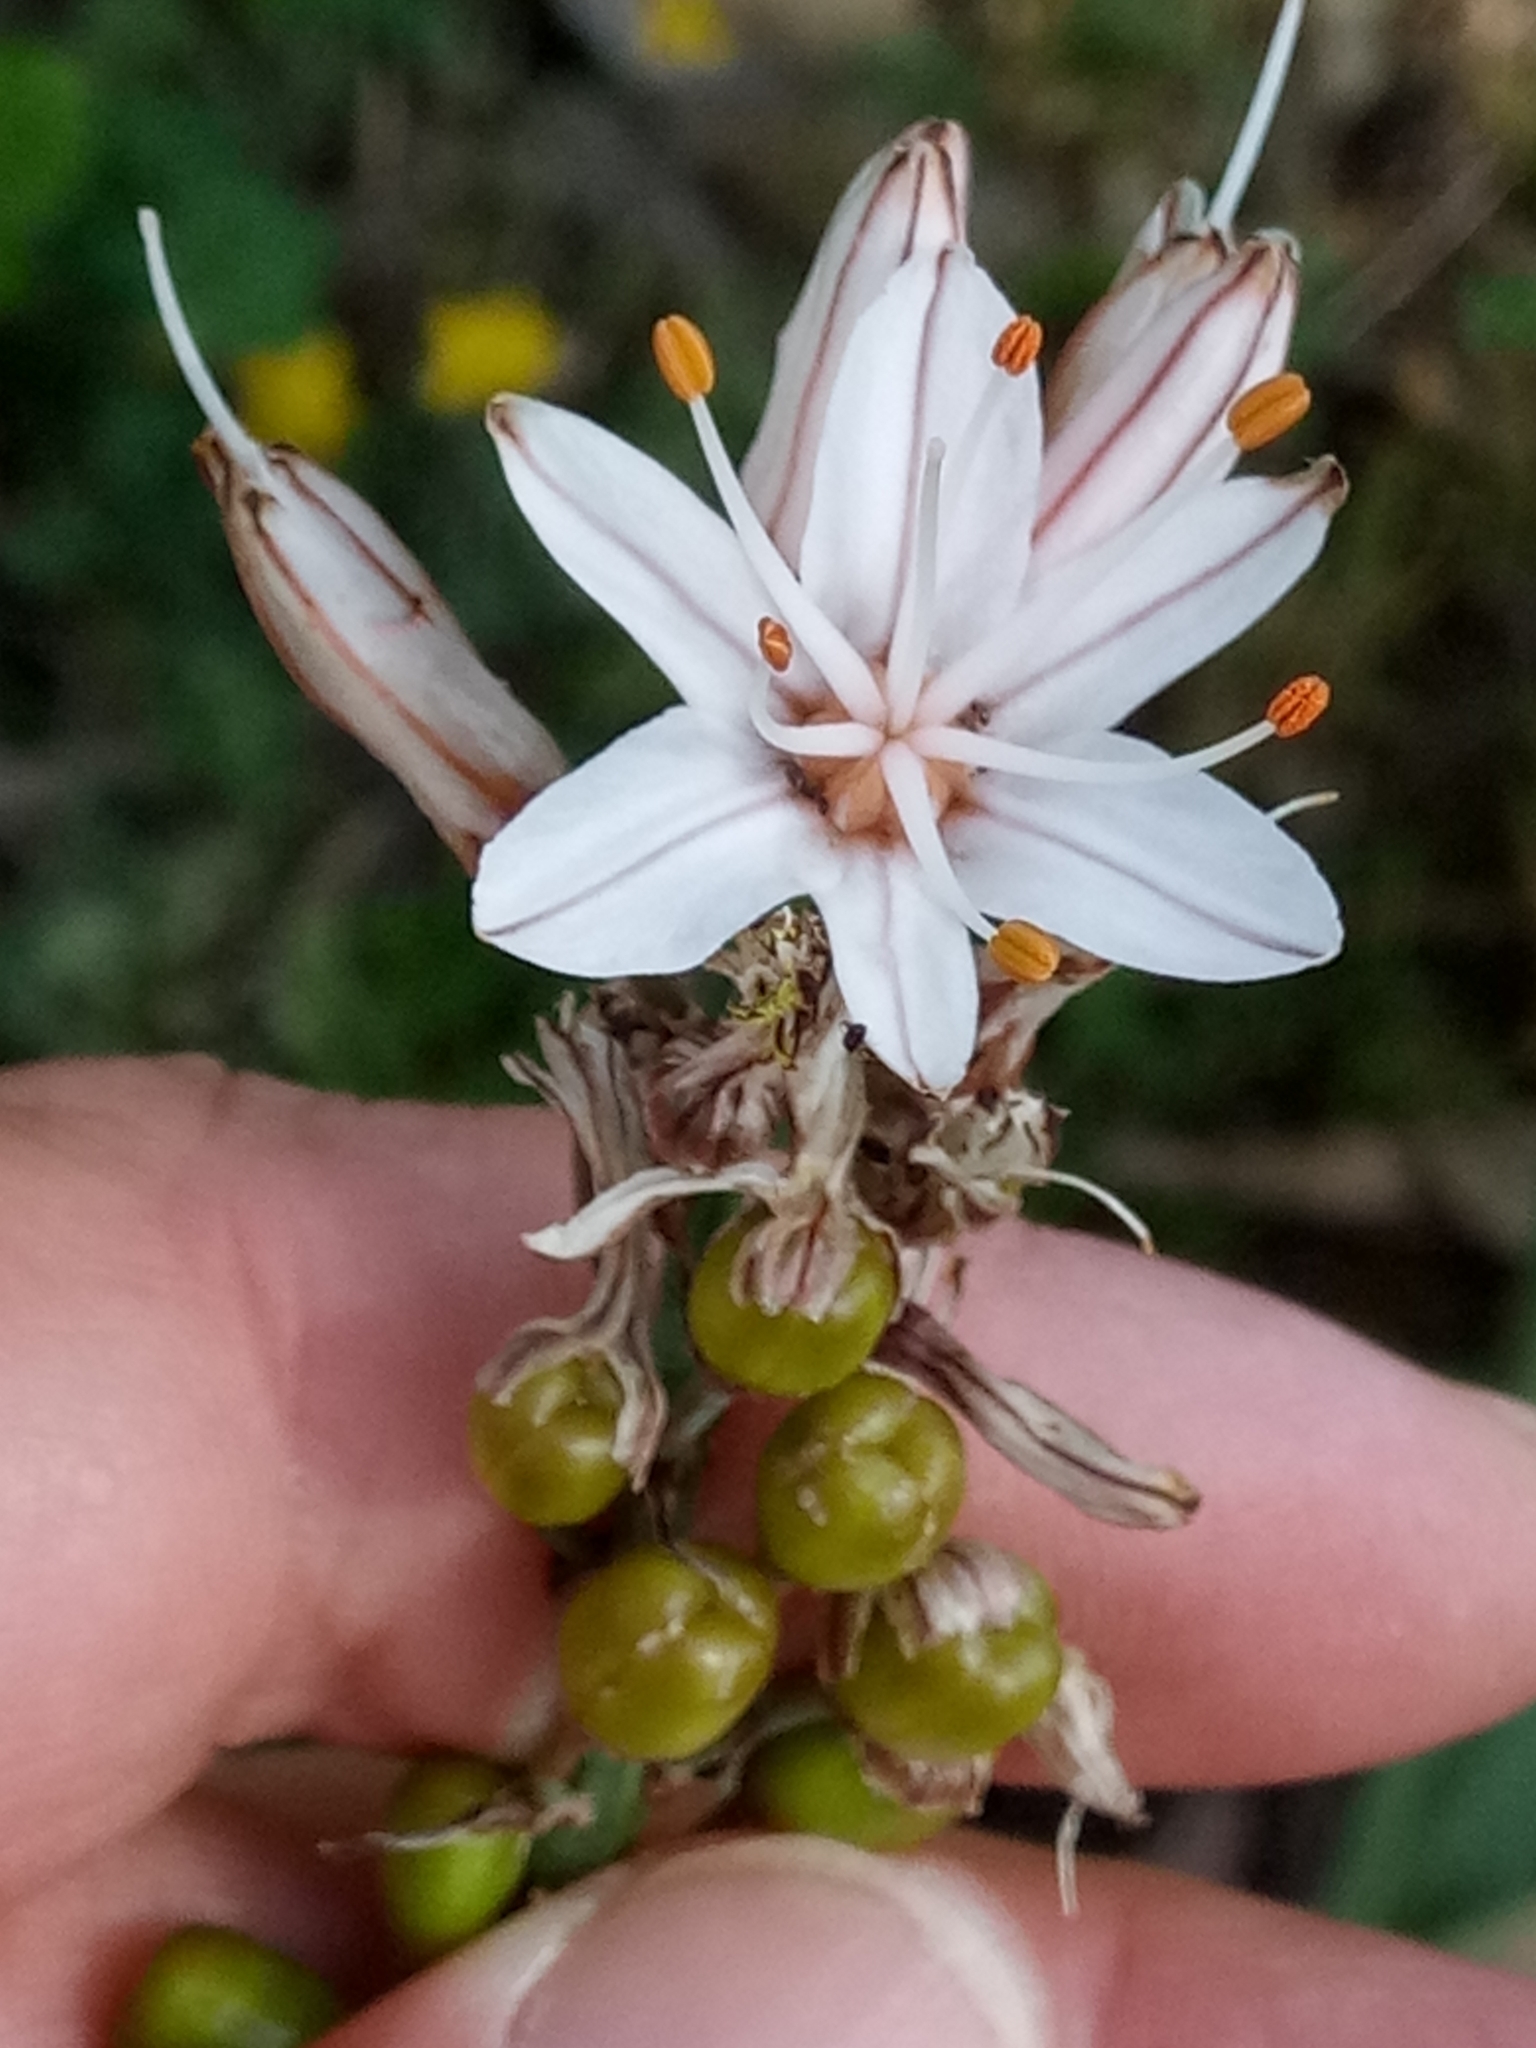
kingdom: Plantae
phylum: Tracheophyta
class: Liliopsida
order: Asparagales
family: Asphodelaceae
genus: Asphodelus
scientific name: Asphodelus ramosus
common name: Silverrod
